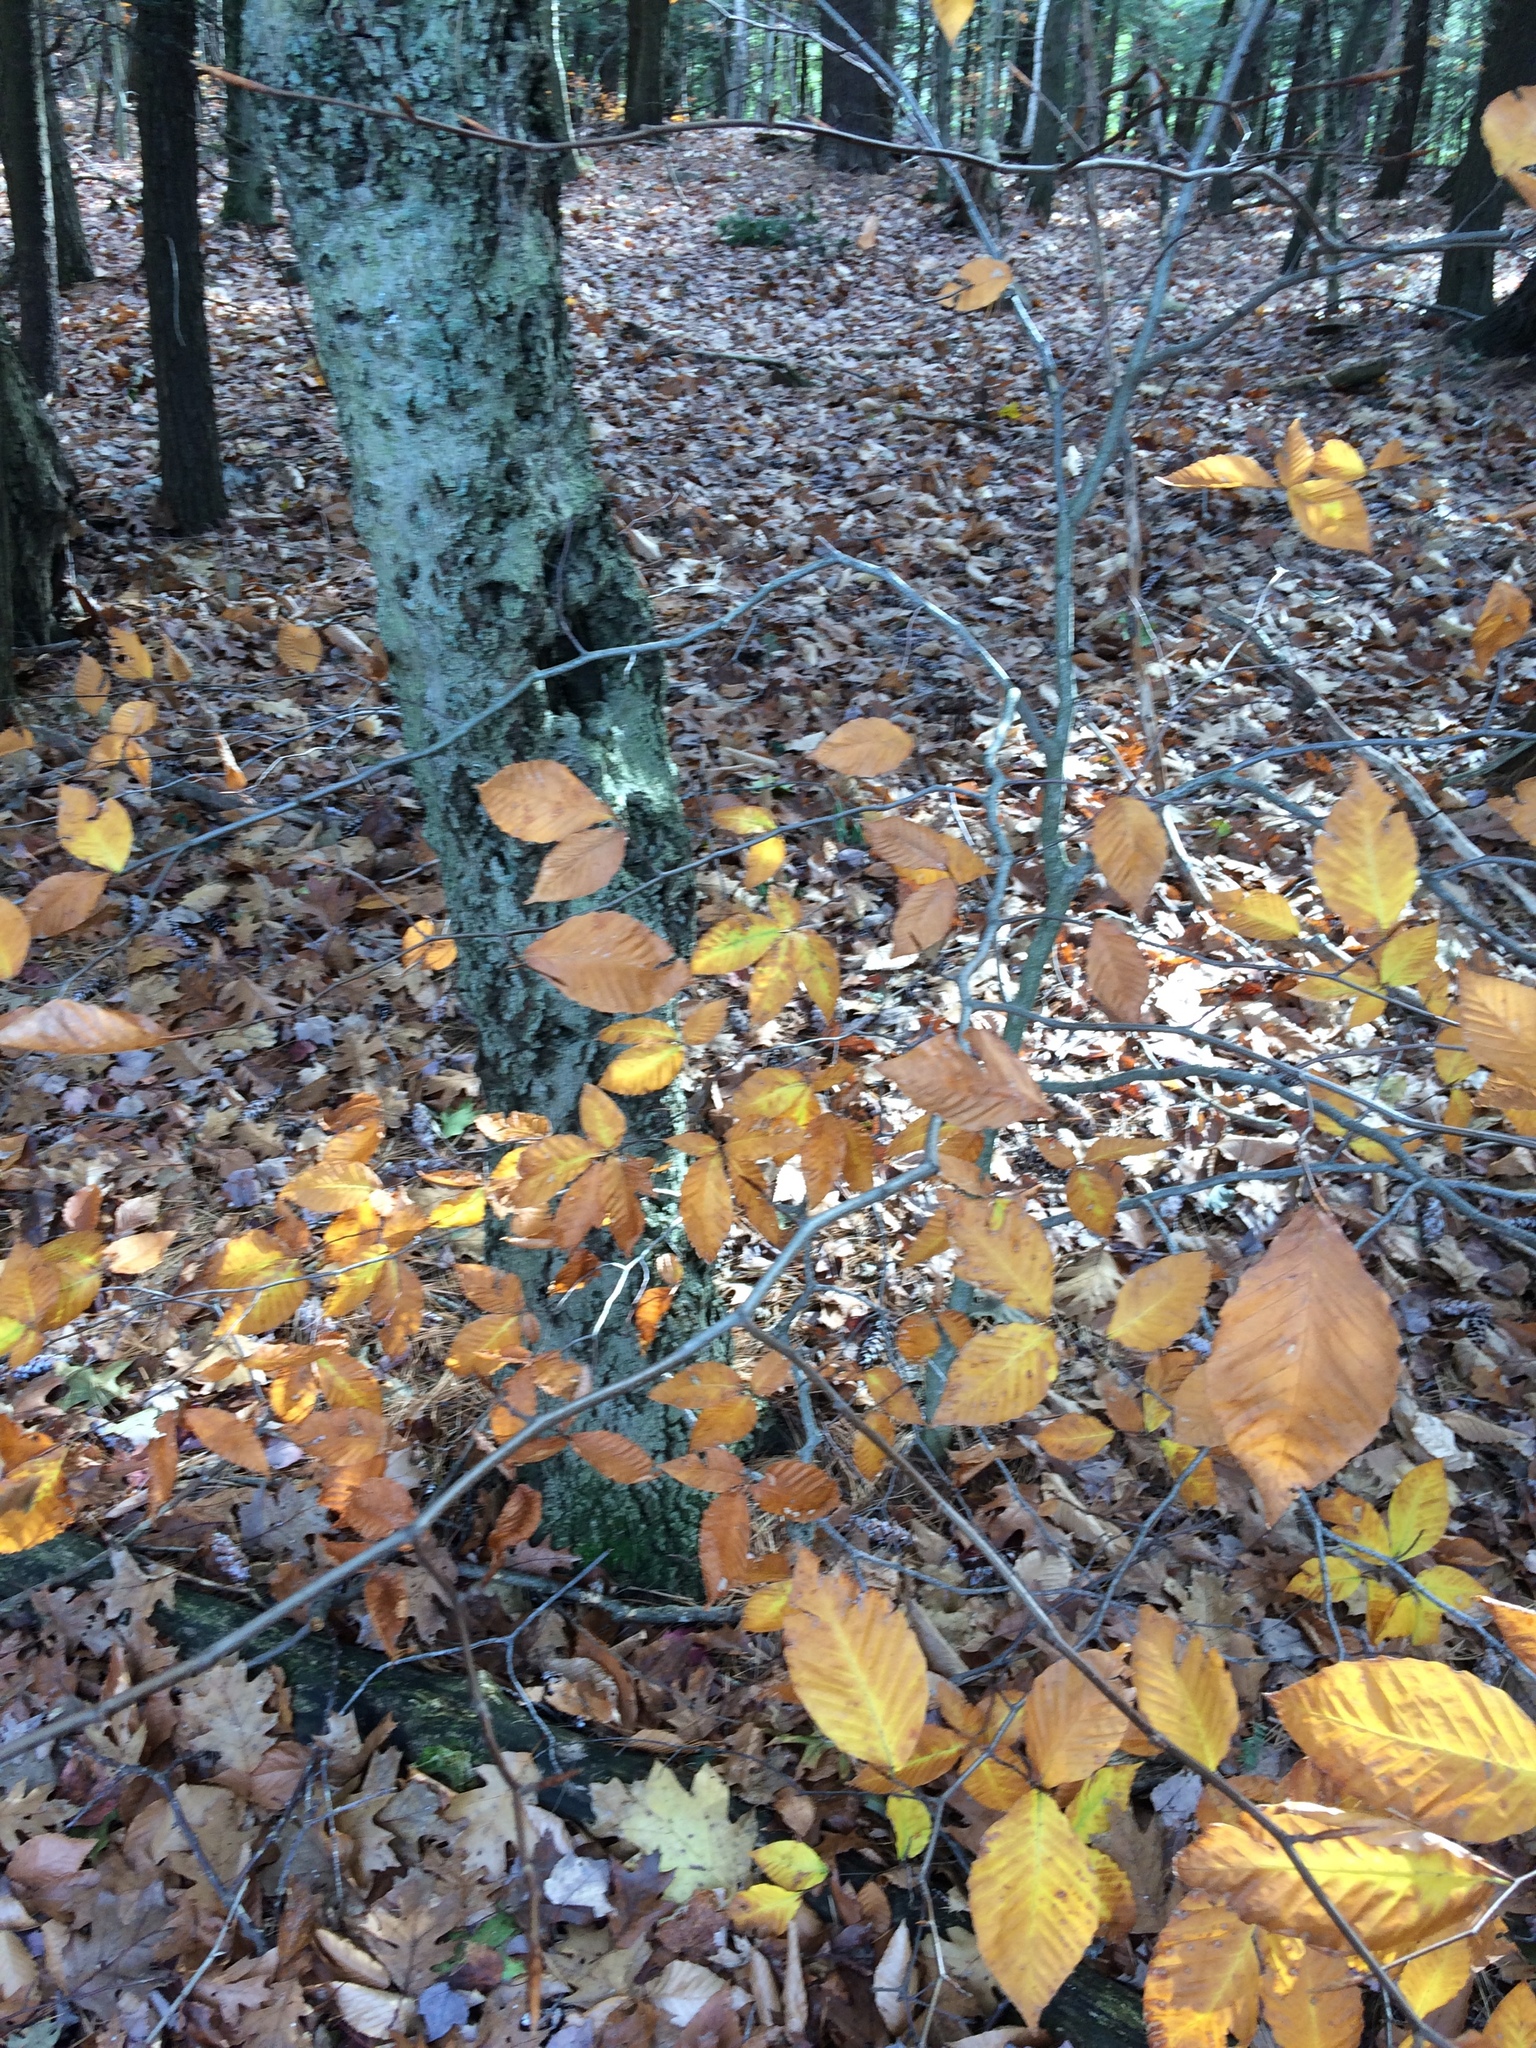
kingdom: Plantae
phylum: Tracheophyta
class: Magnoliopsida
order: Fagales
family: Fagaceae
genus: Fagus
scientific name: Fagus grandifolia
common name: American beech
